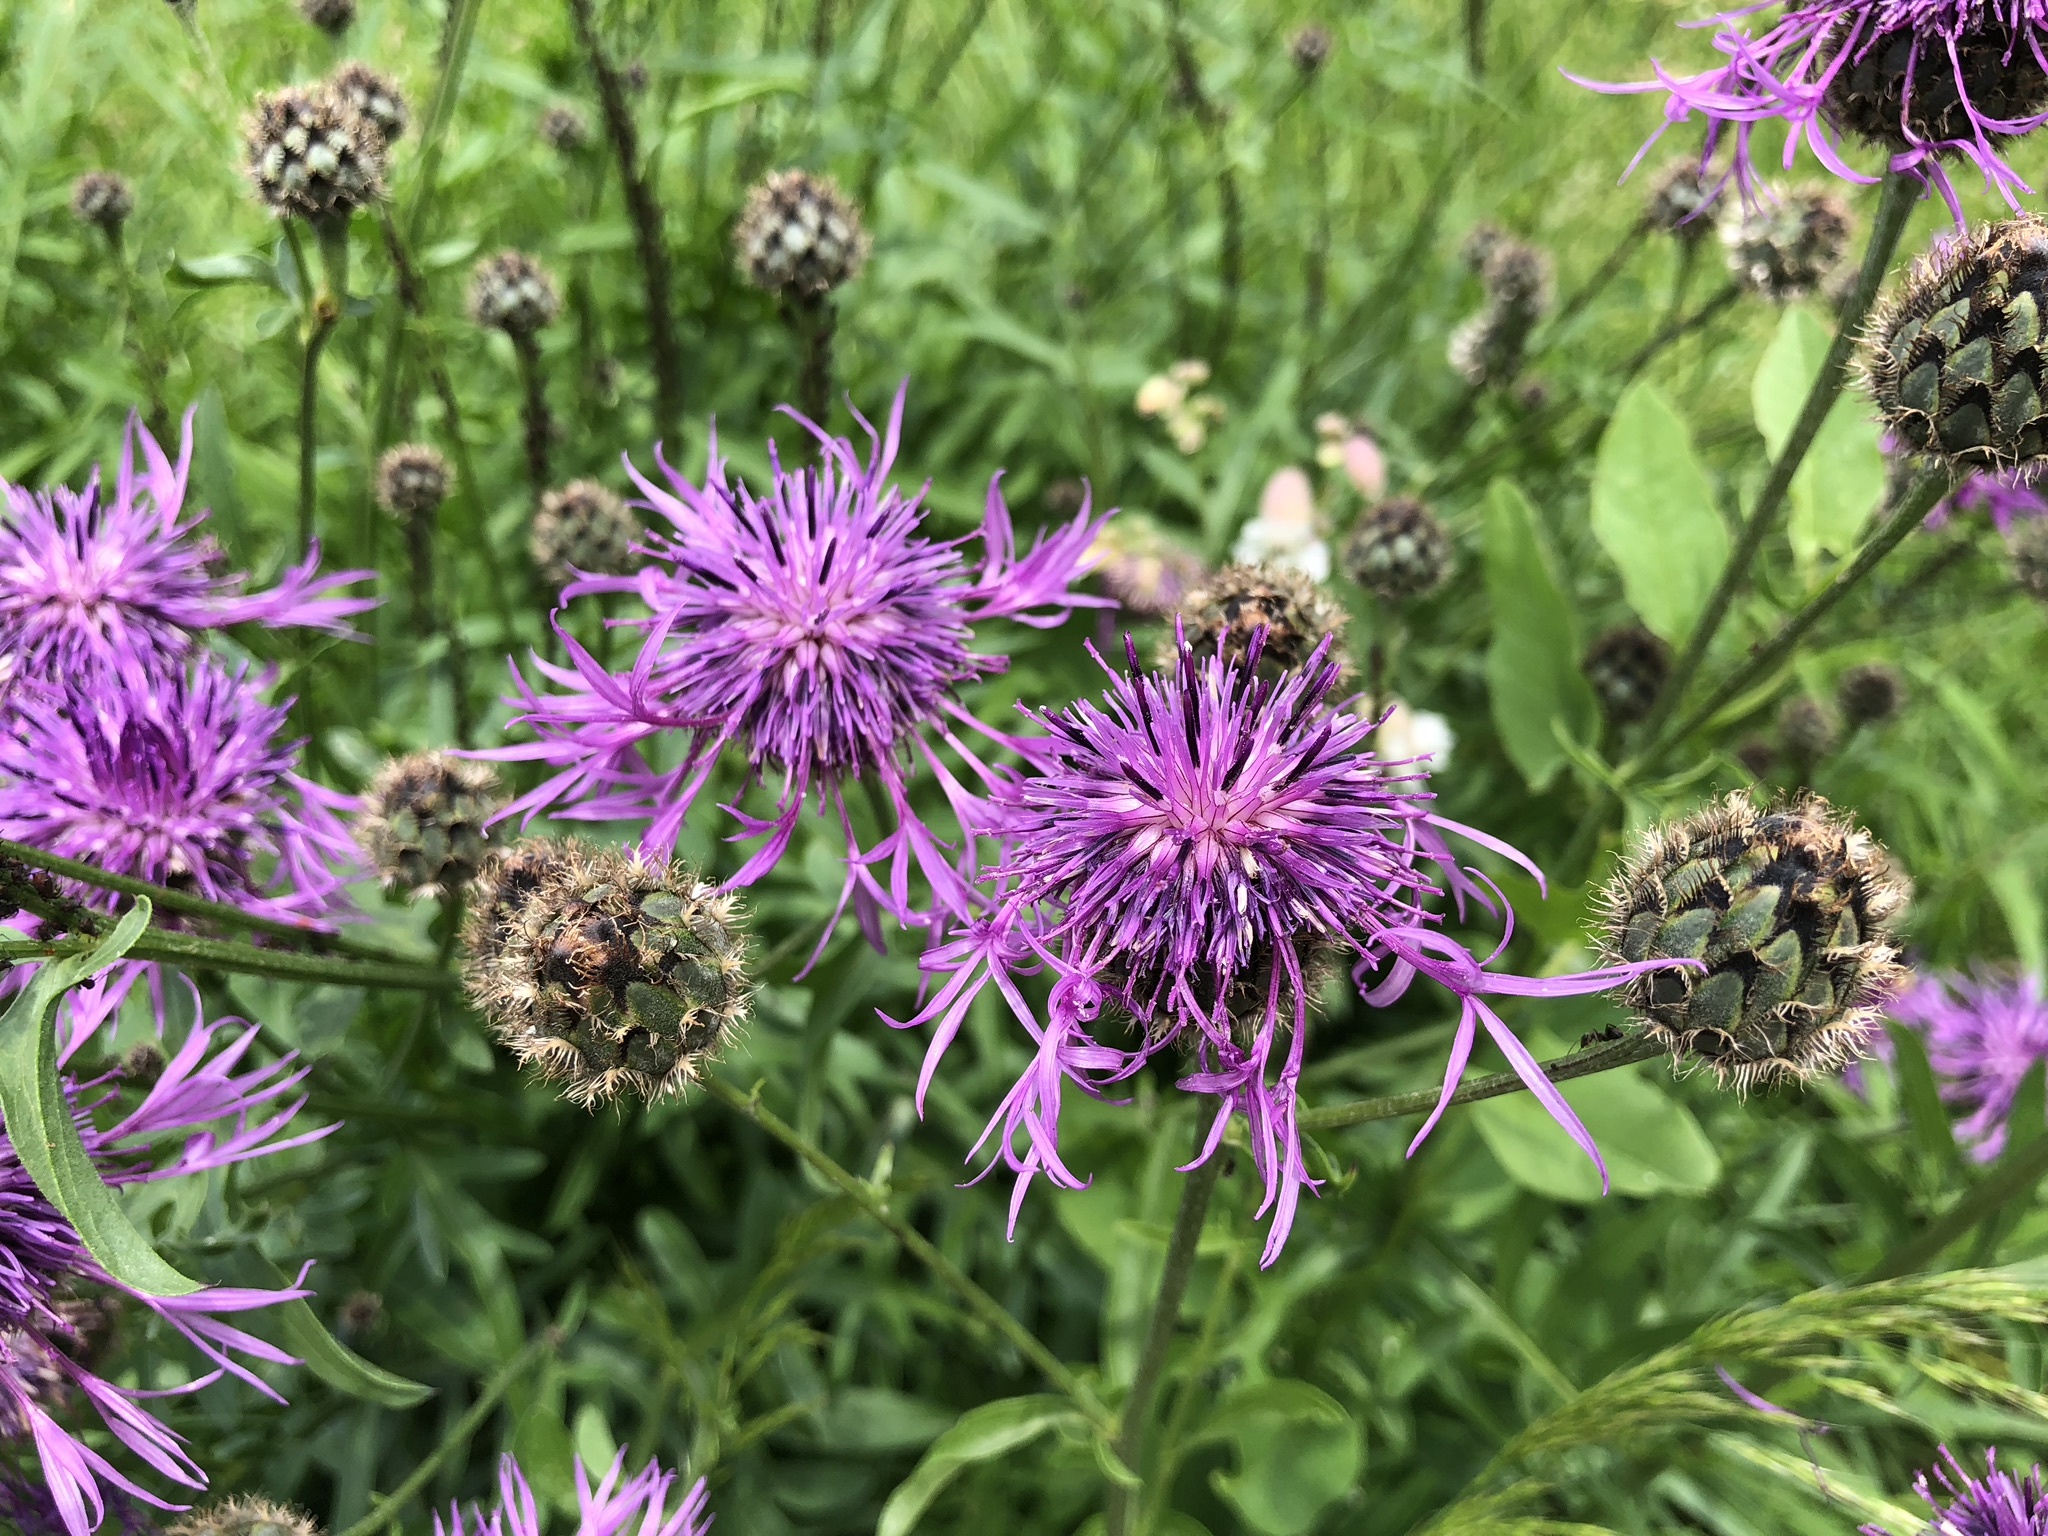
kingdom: Plantae
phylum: Tracheophyta
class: Magnoliopsida
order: Asterales
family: Asteraceae
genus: Centaurea
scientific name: Centaurea scabiosa
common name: Greater knapweed
